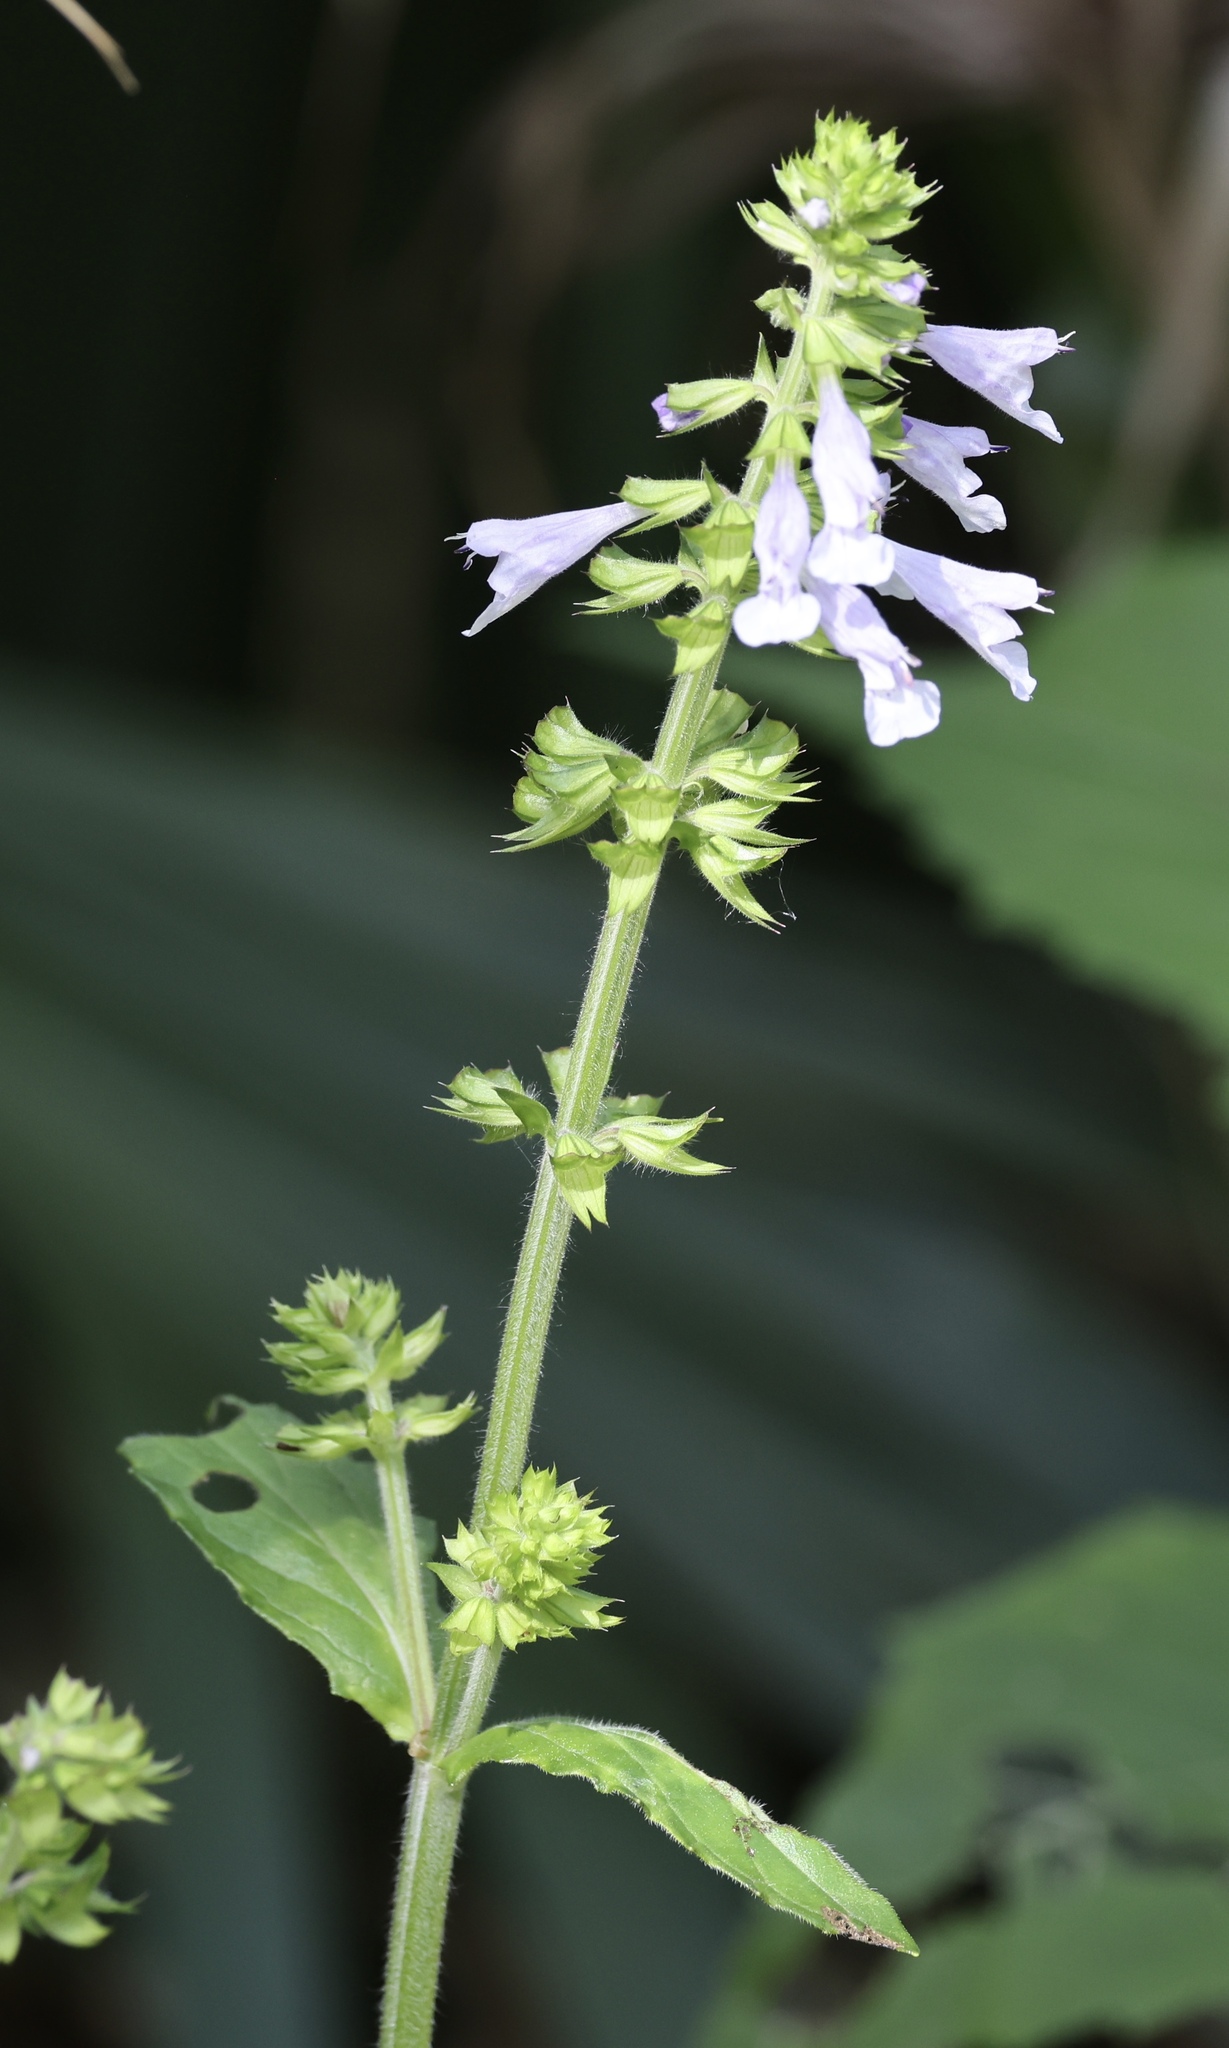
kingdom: Plantae
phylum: Tracheophyta
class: Magnoliopsida
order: Lamiales
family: Lamiaceae
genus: Salvia
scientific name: Salvia lyrata
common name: Cancerweed
